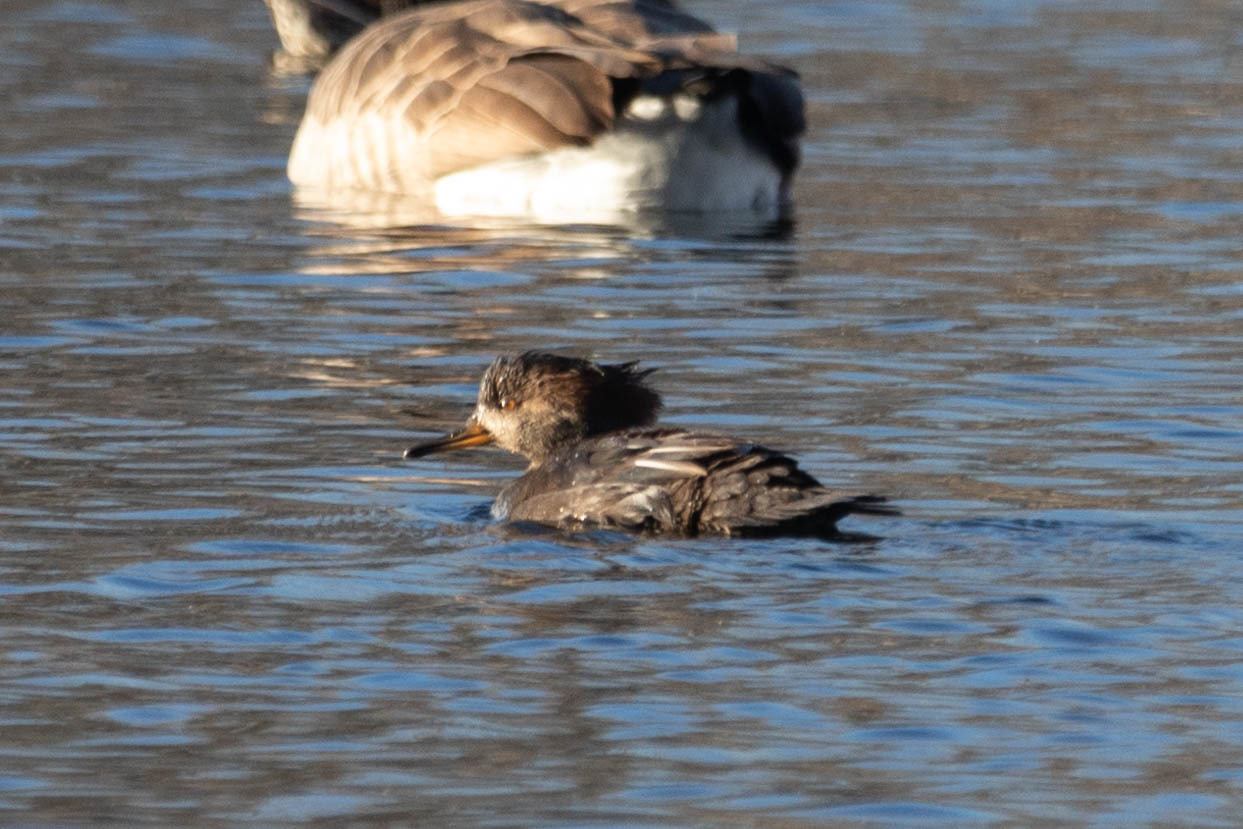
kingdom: Animalia
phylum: Chordata
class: Aves
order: Anseriformes
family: Anatidae
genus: Lophodytes
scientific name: Lophodytes cucullatus
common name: Hooded merganser
